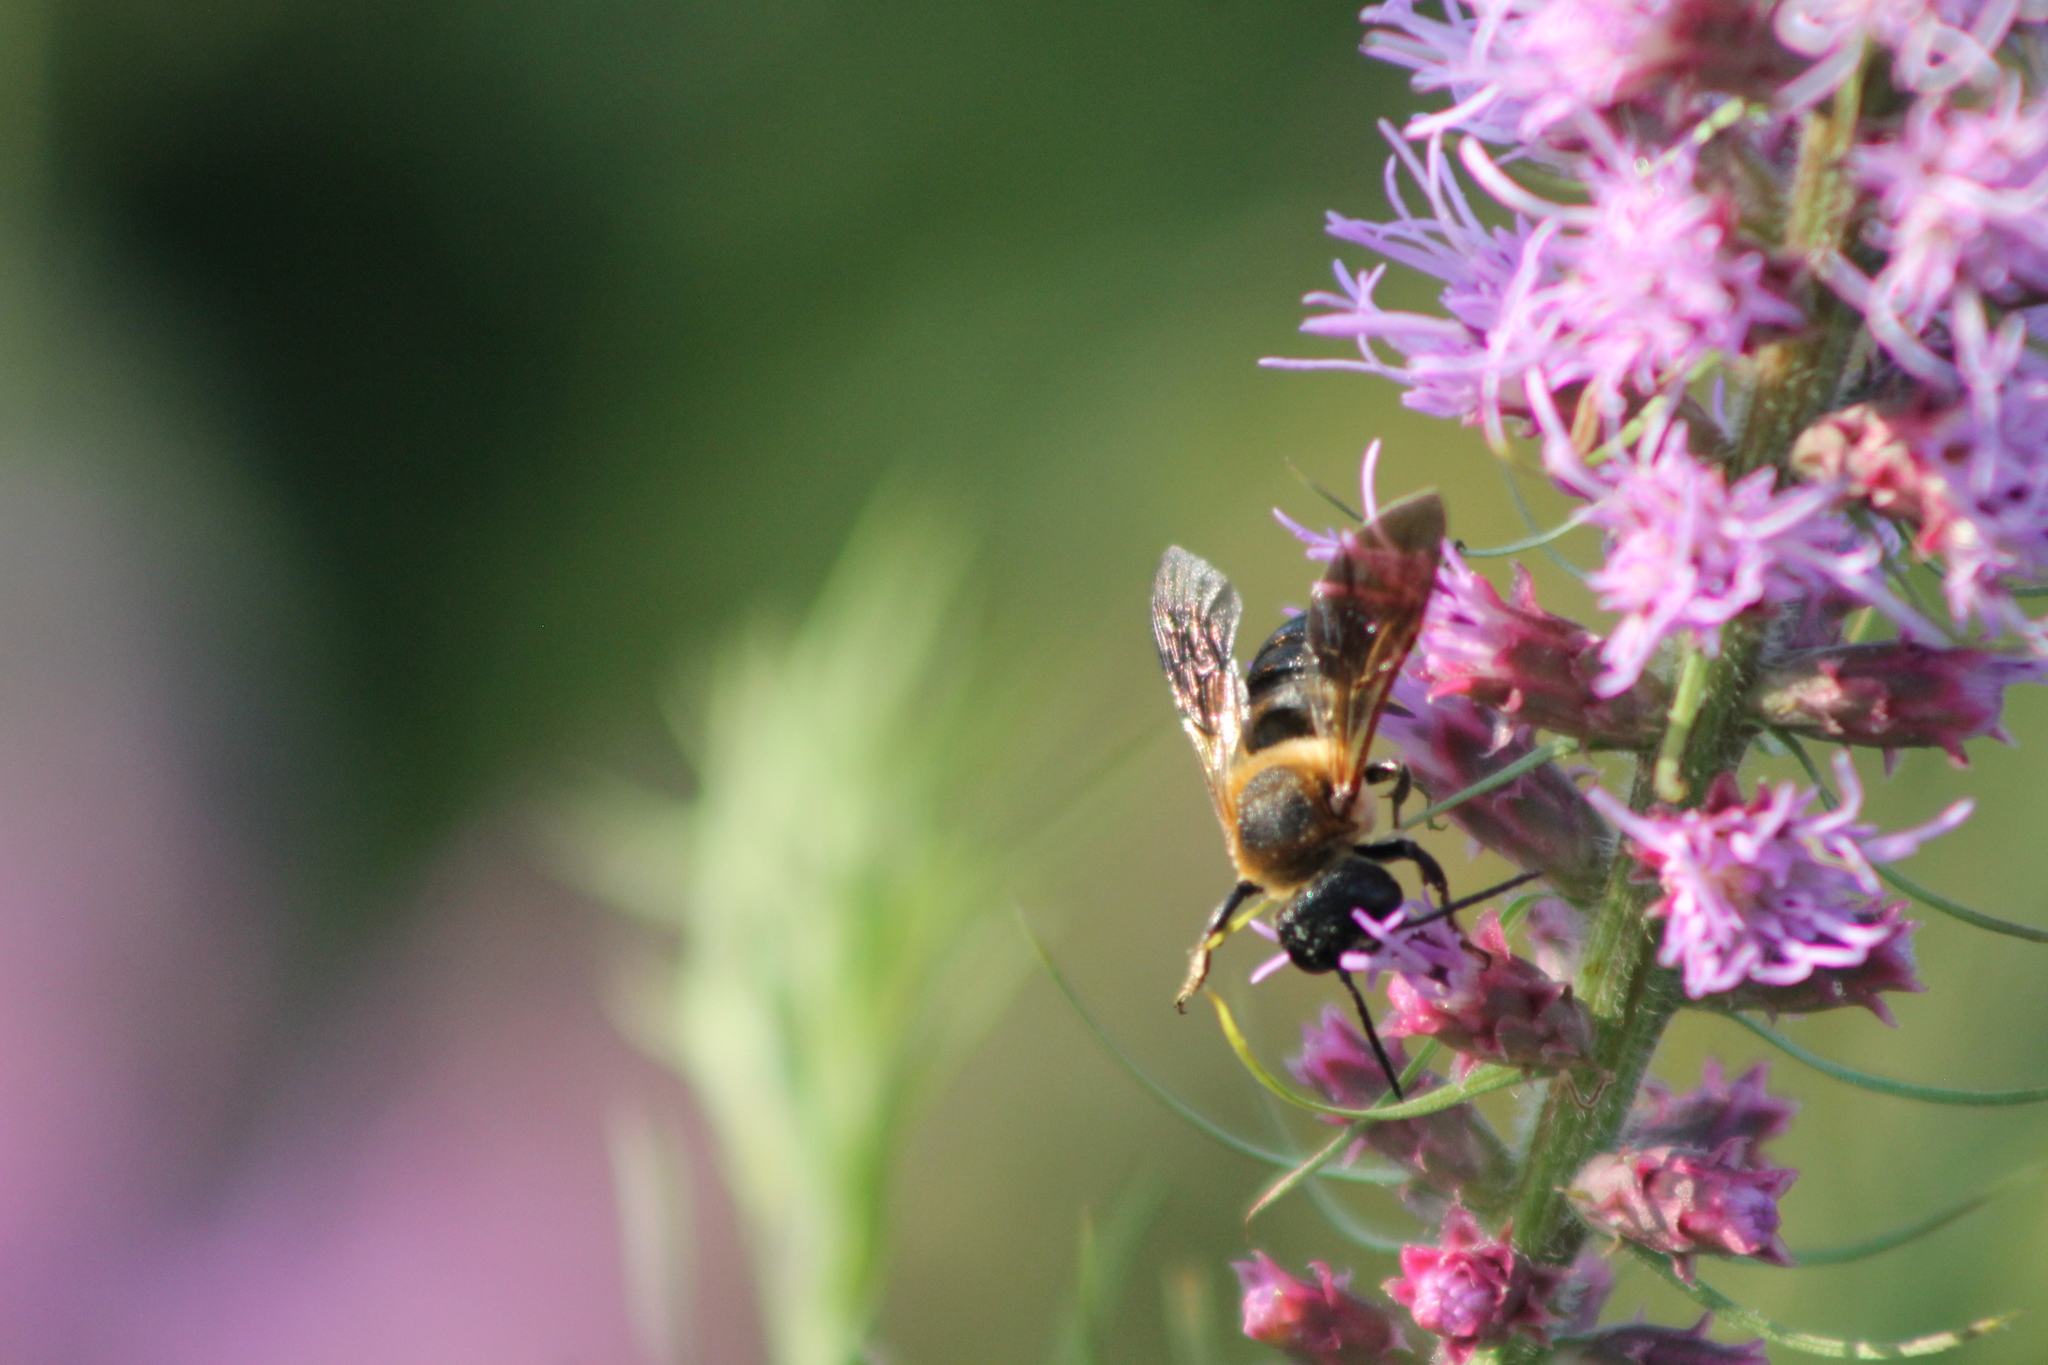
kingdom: Animalia
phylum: Arthropoda
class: Insecta
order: Hymenoptera
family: Megachilidae
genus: Megachile
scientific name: Megachile sculpturalis
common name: Sculptured resin bee
